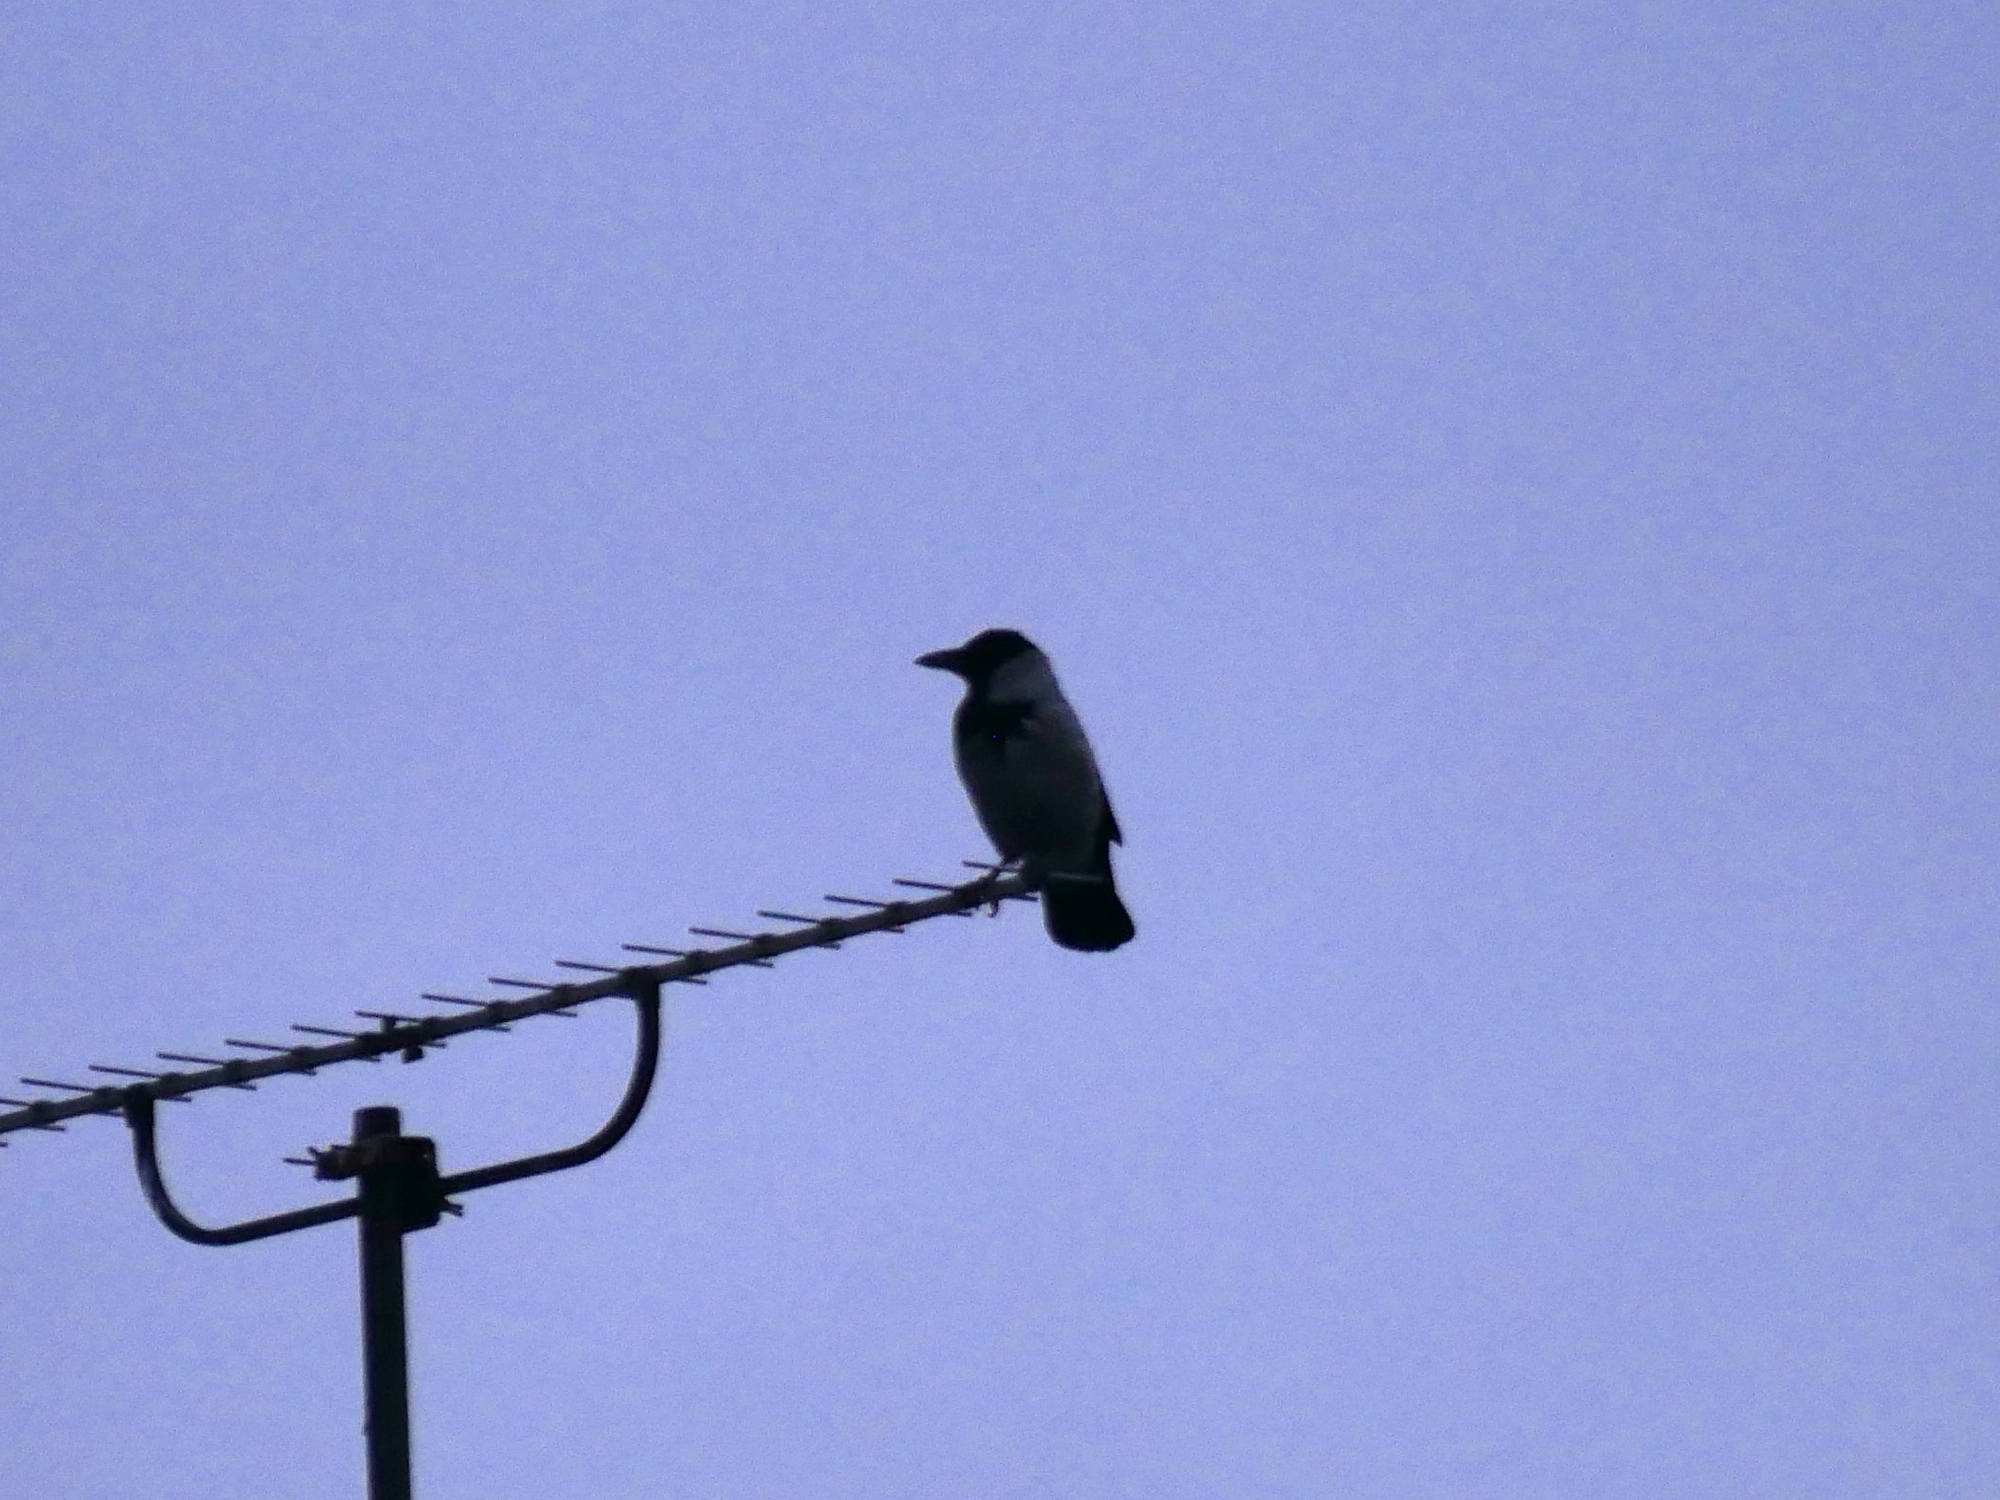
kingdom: Animalia
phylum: Chordata
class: Aves
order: Passeriformes
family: Corvidae
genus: Corvus
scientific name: Corvus cornix
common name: Hooded crow
